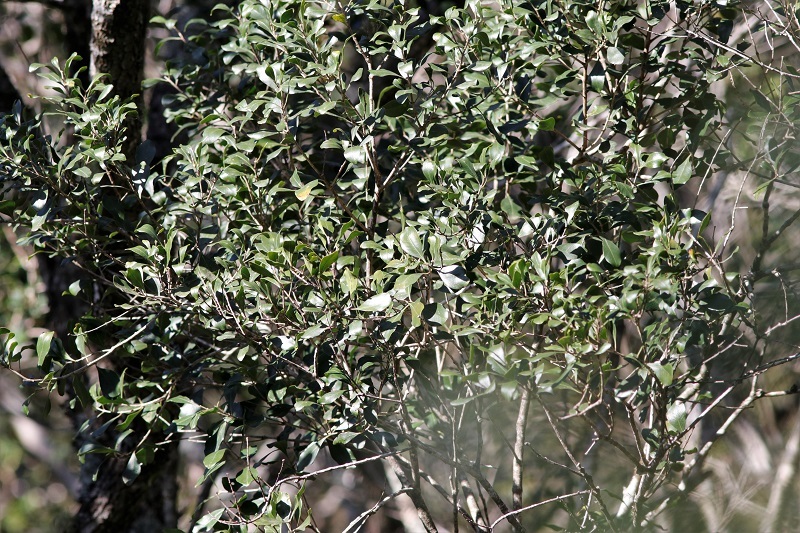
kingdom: Plantae
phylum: Tracheophyta
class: Magnoliopsida
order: Myrtales
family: Penaeaceae
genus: Olinia
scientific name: Olinia ventosa
